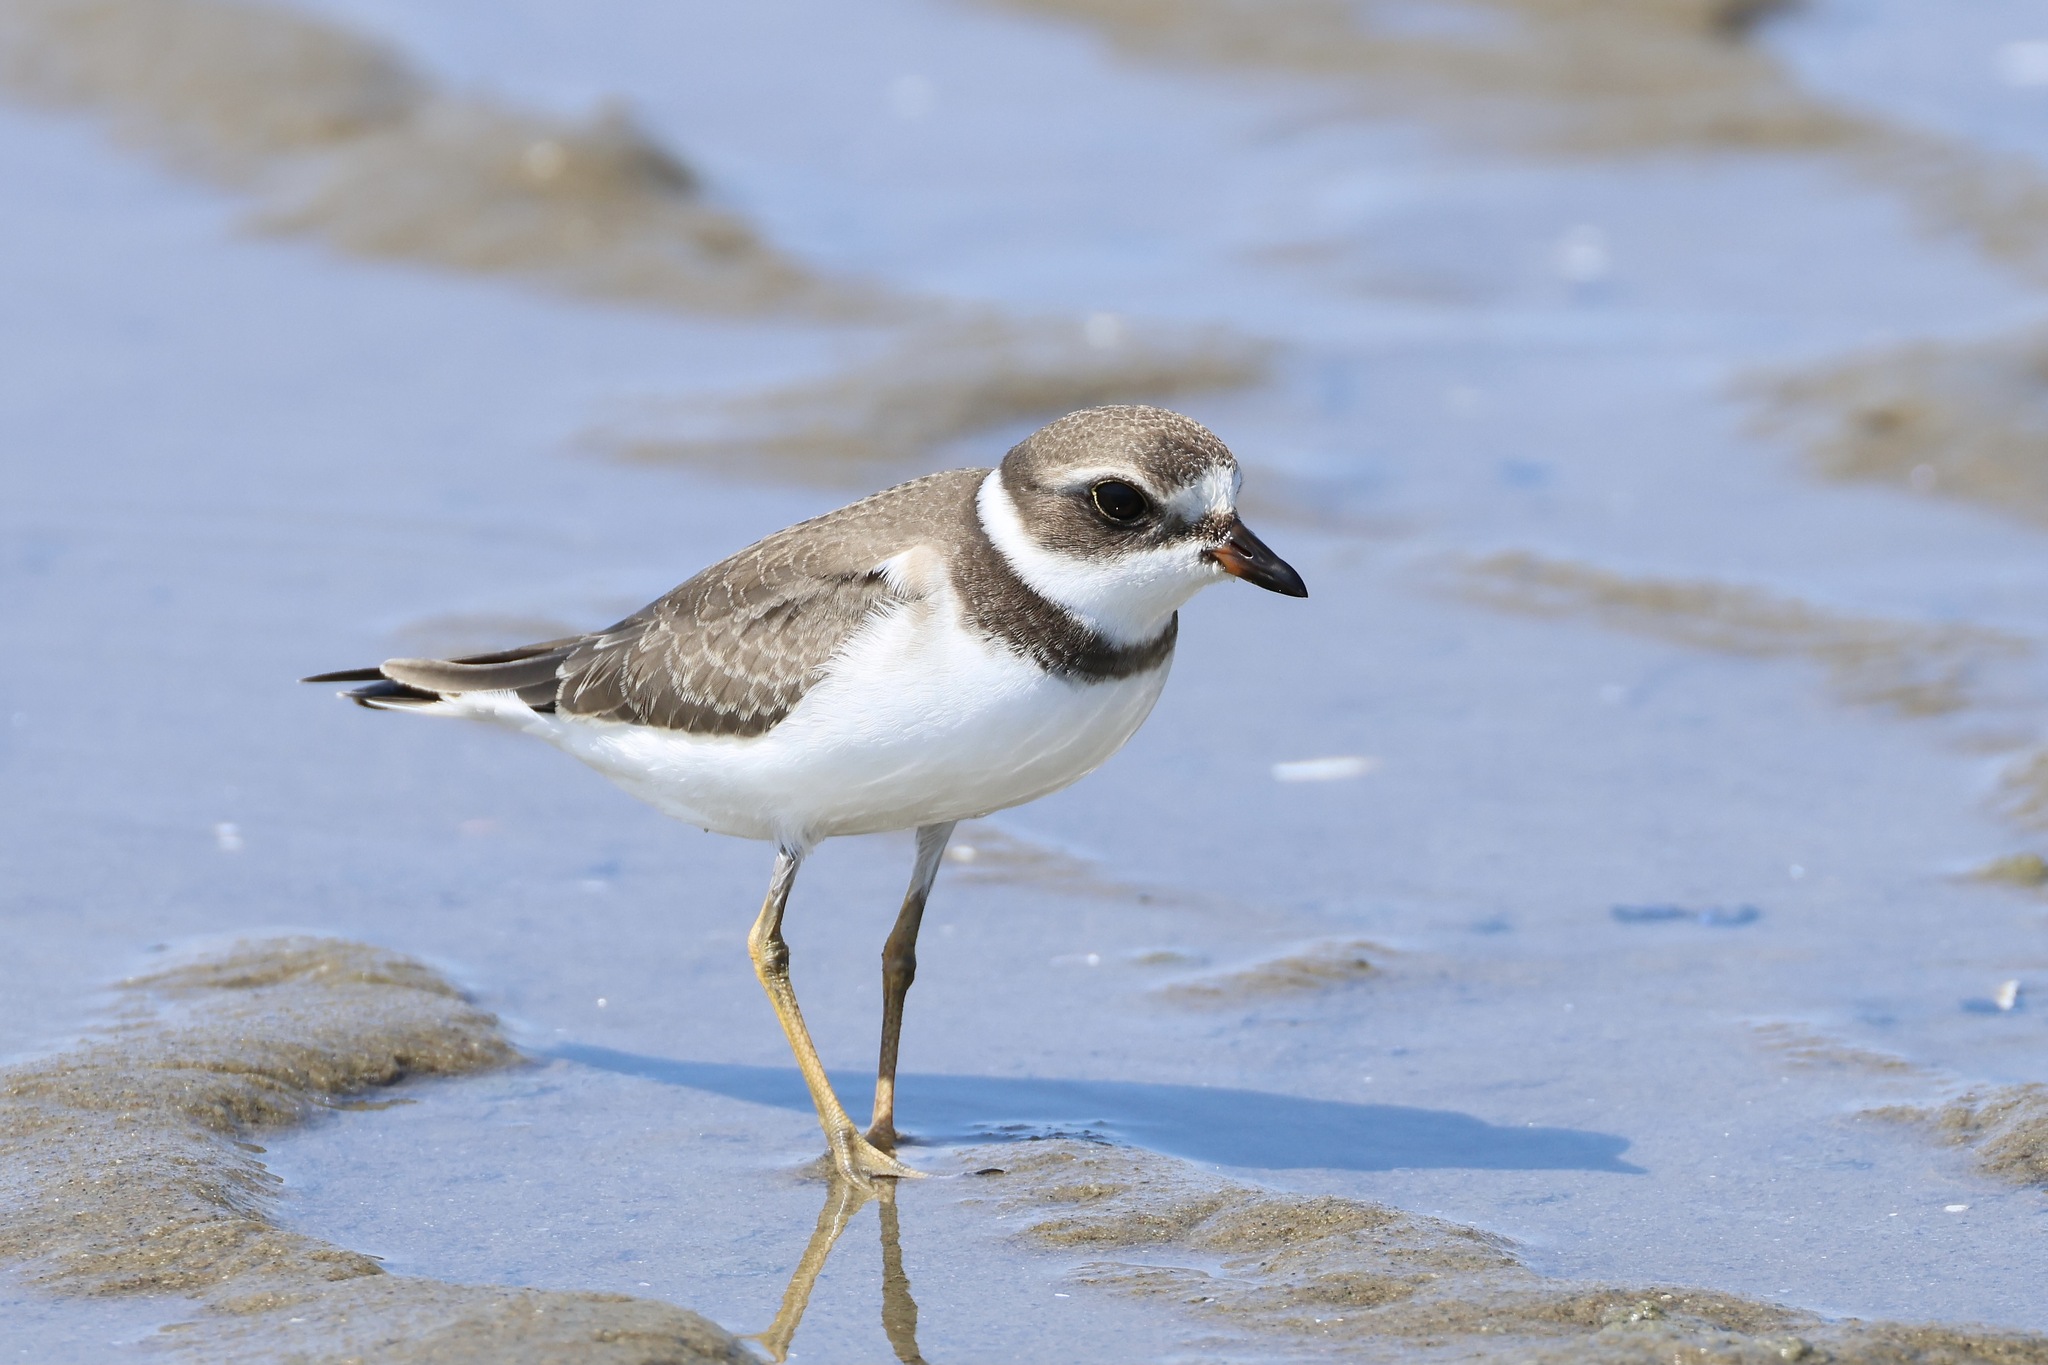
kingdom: Animalia
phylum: Chordata
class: Aves
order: Charadriiformes
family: Charadriidae
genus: Charadrius
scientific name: Charadrius semipalmatus
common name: Semipalmated plover
